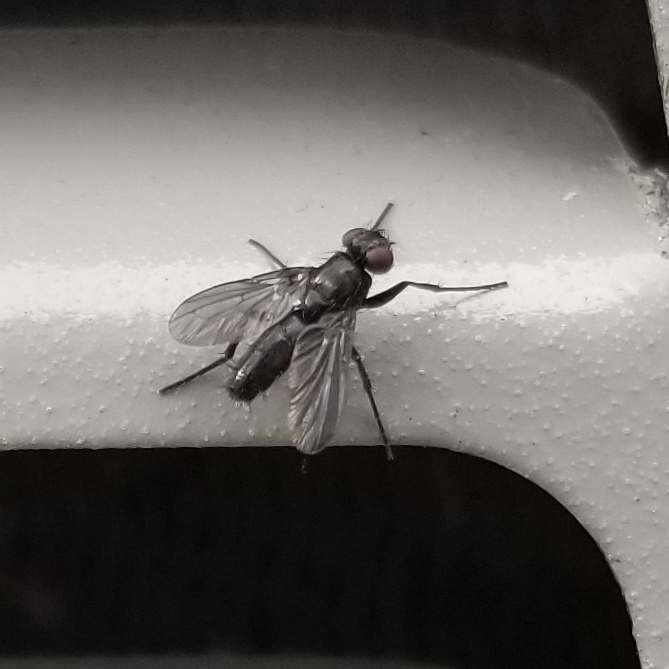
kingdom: Animalia
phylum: Arthropoda
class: Insecta
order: Diptera
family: Calliphoridae
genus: Melanophora
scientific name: Melanophora roralis
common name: Smoky-winged woodlouse-fly
